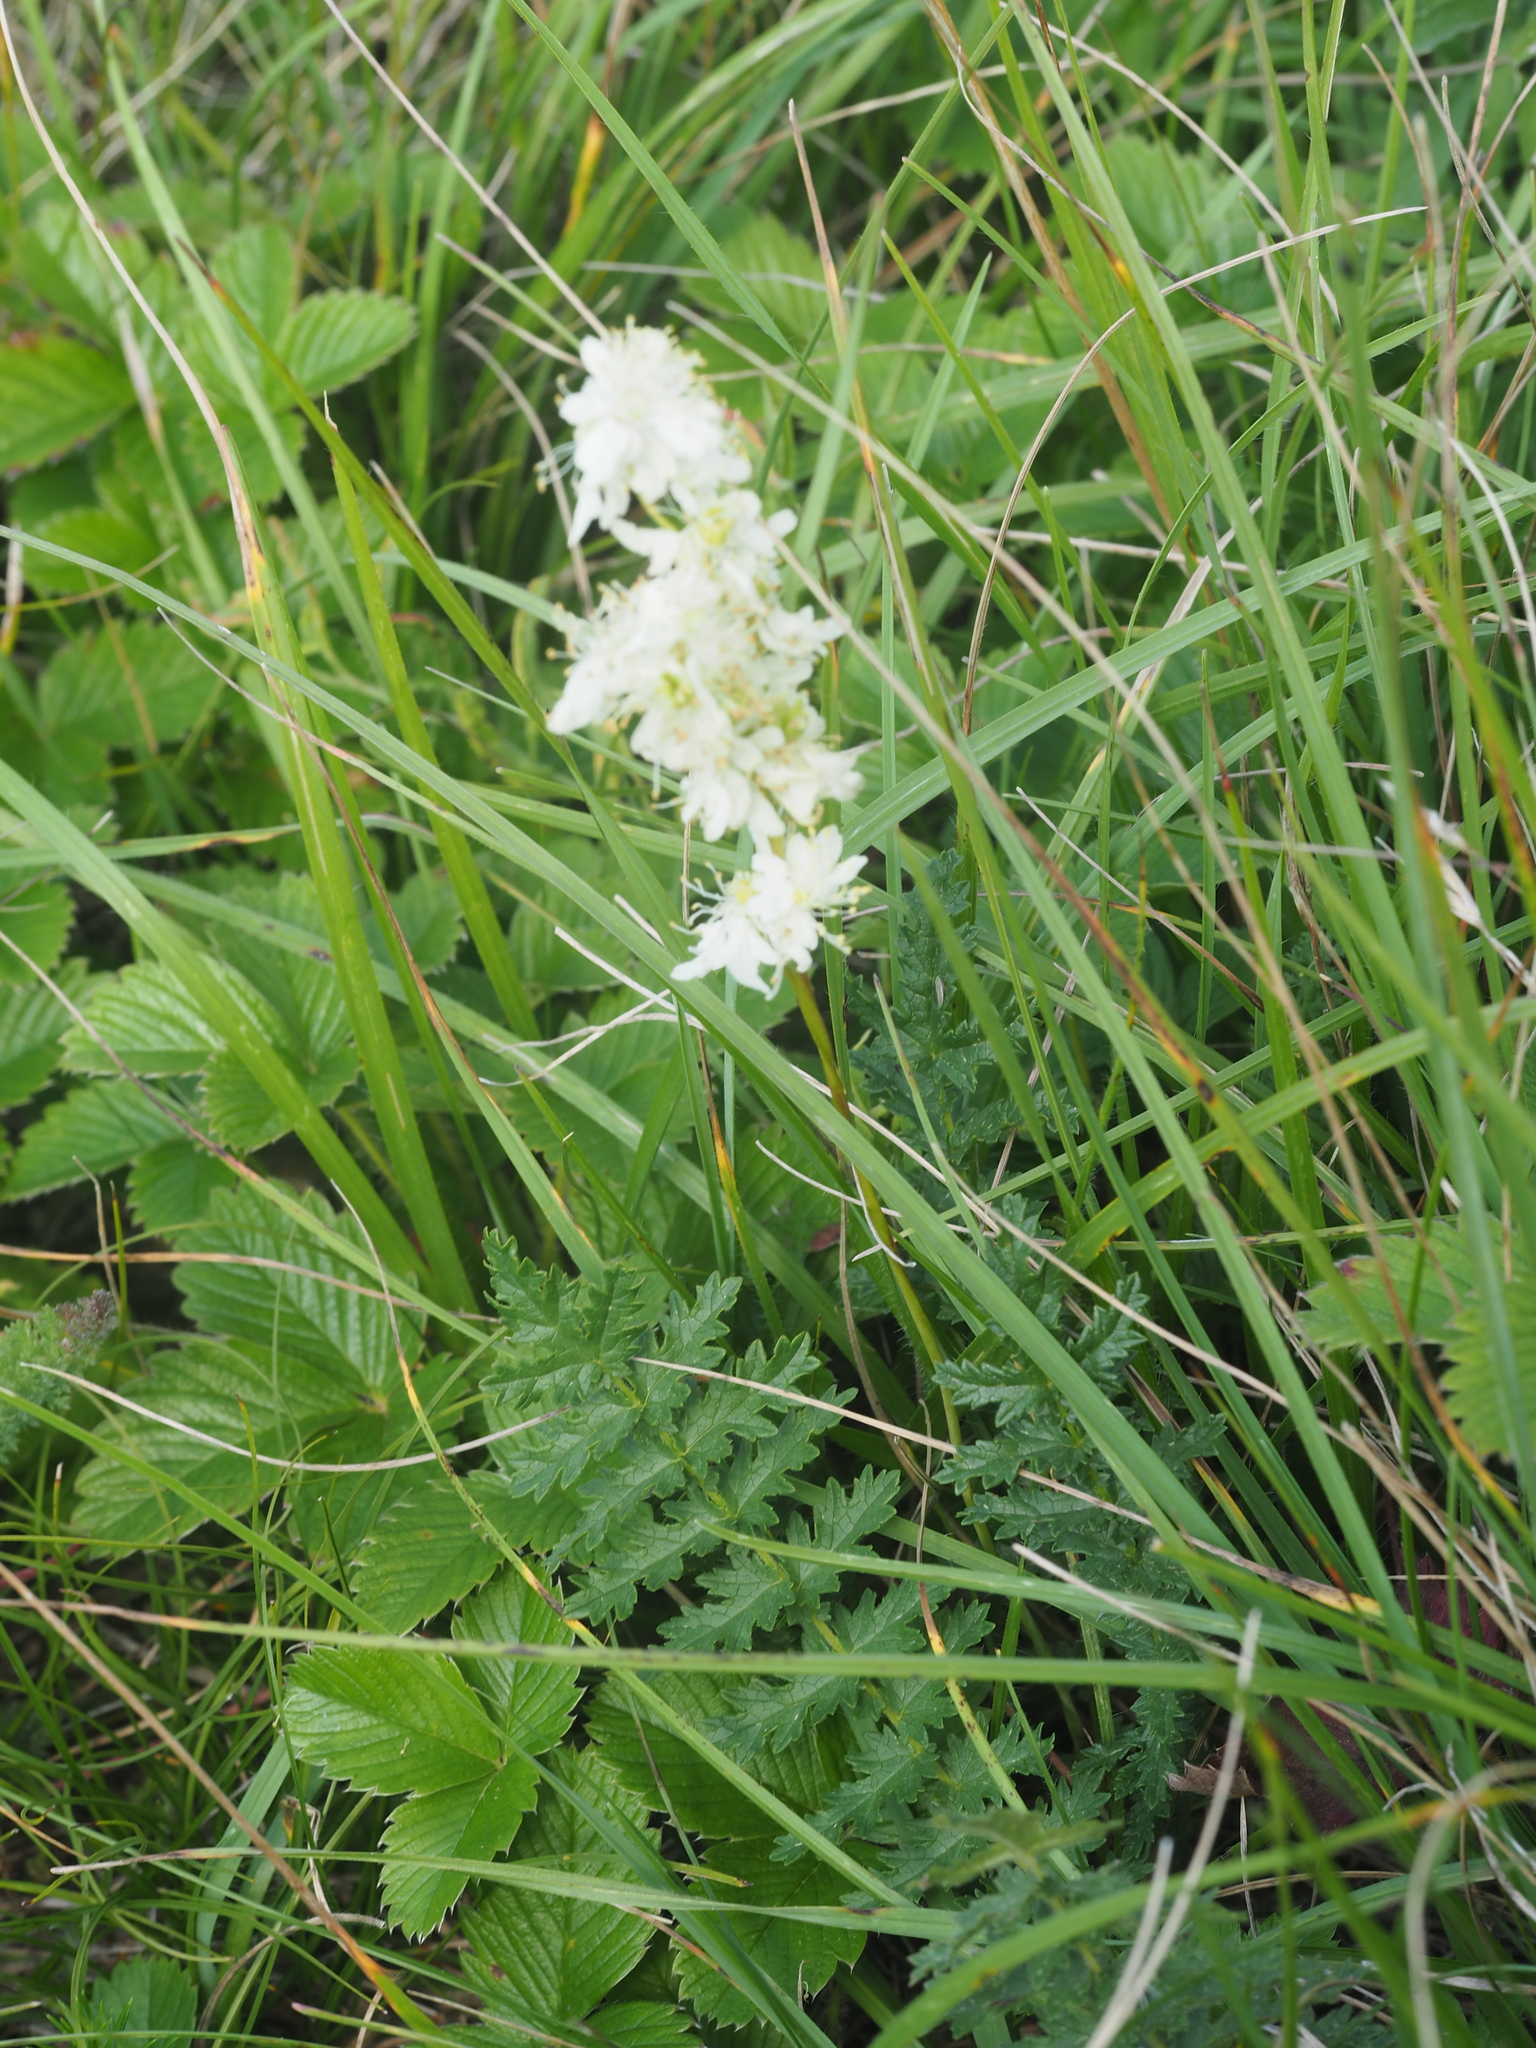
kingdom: Plantae
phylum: Tracheophyta
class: Magnoliopsida
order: Rosales
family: Rosaceae
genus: Filipendula
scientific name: Filipendula vulgaris
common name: Dropwort
